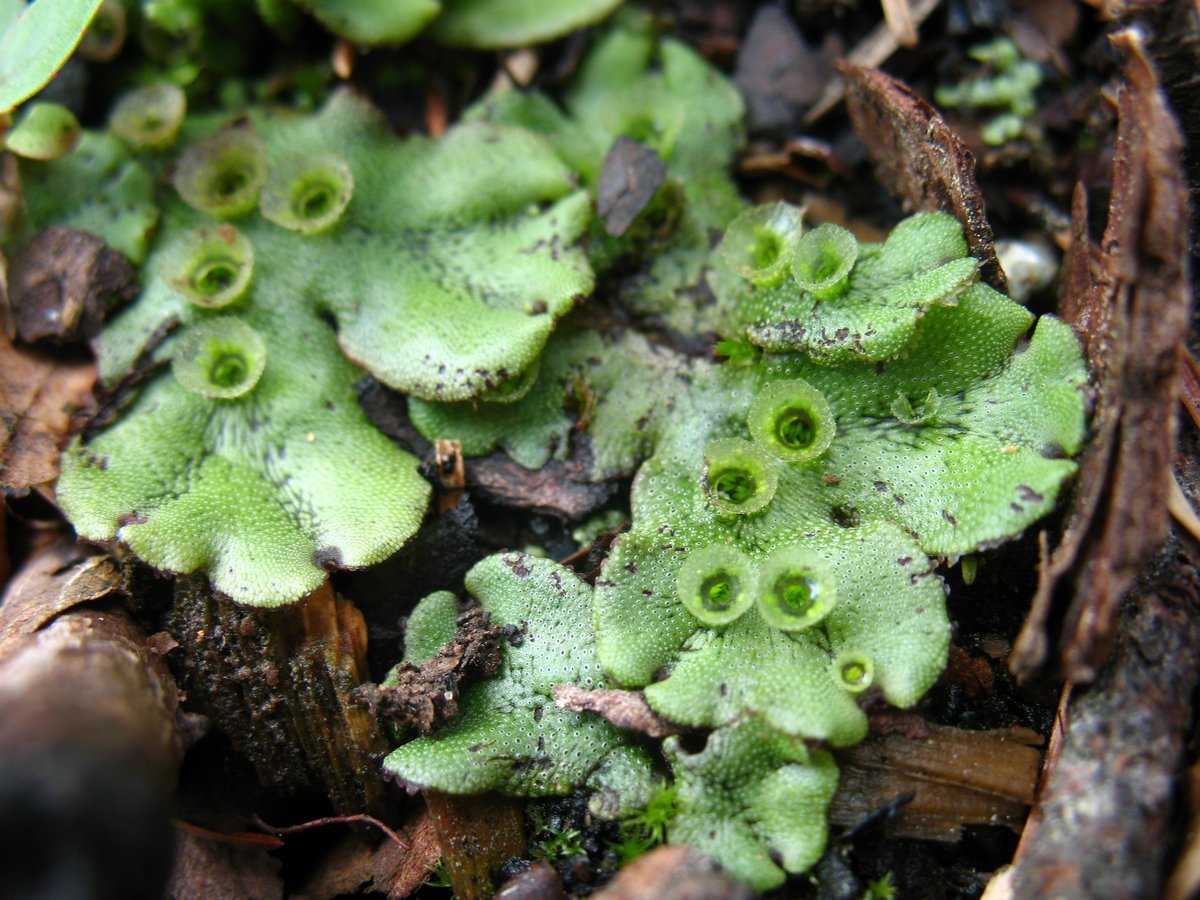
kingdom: Plantae
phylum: Marchantiophyta
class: Marchantiopsida
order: Marchantiales
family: Marchantiaceae
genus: Marchantia
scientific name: Marchantia polymorpha
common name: Common liverwort
